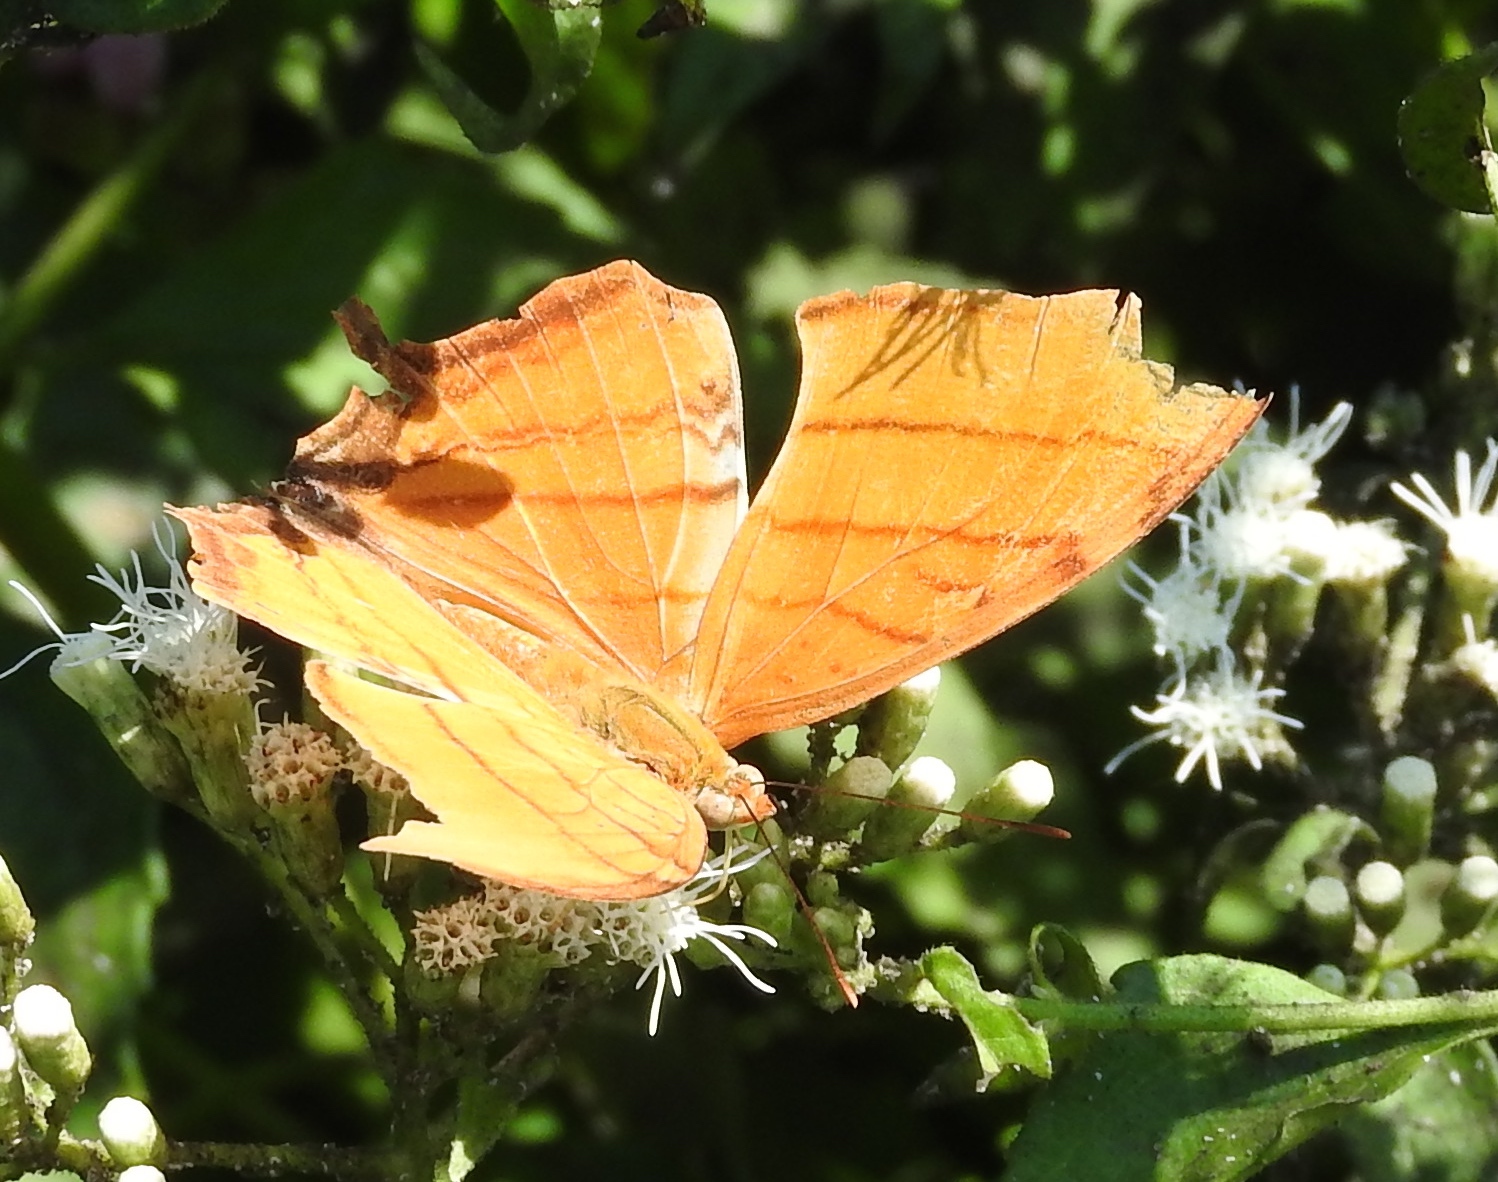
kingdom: Animalia
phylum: Arthropoda
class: Insecta
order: Lepidoptera
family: Nymphalidae
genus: Marpesia
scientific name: Marpesia petreus
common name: Red dagger wing
